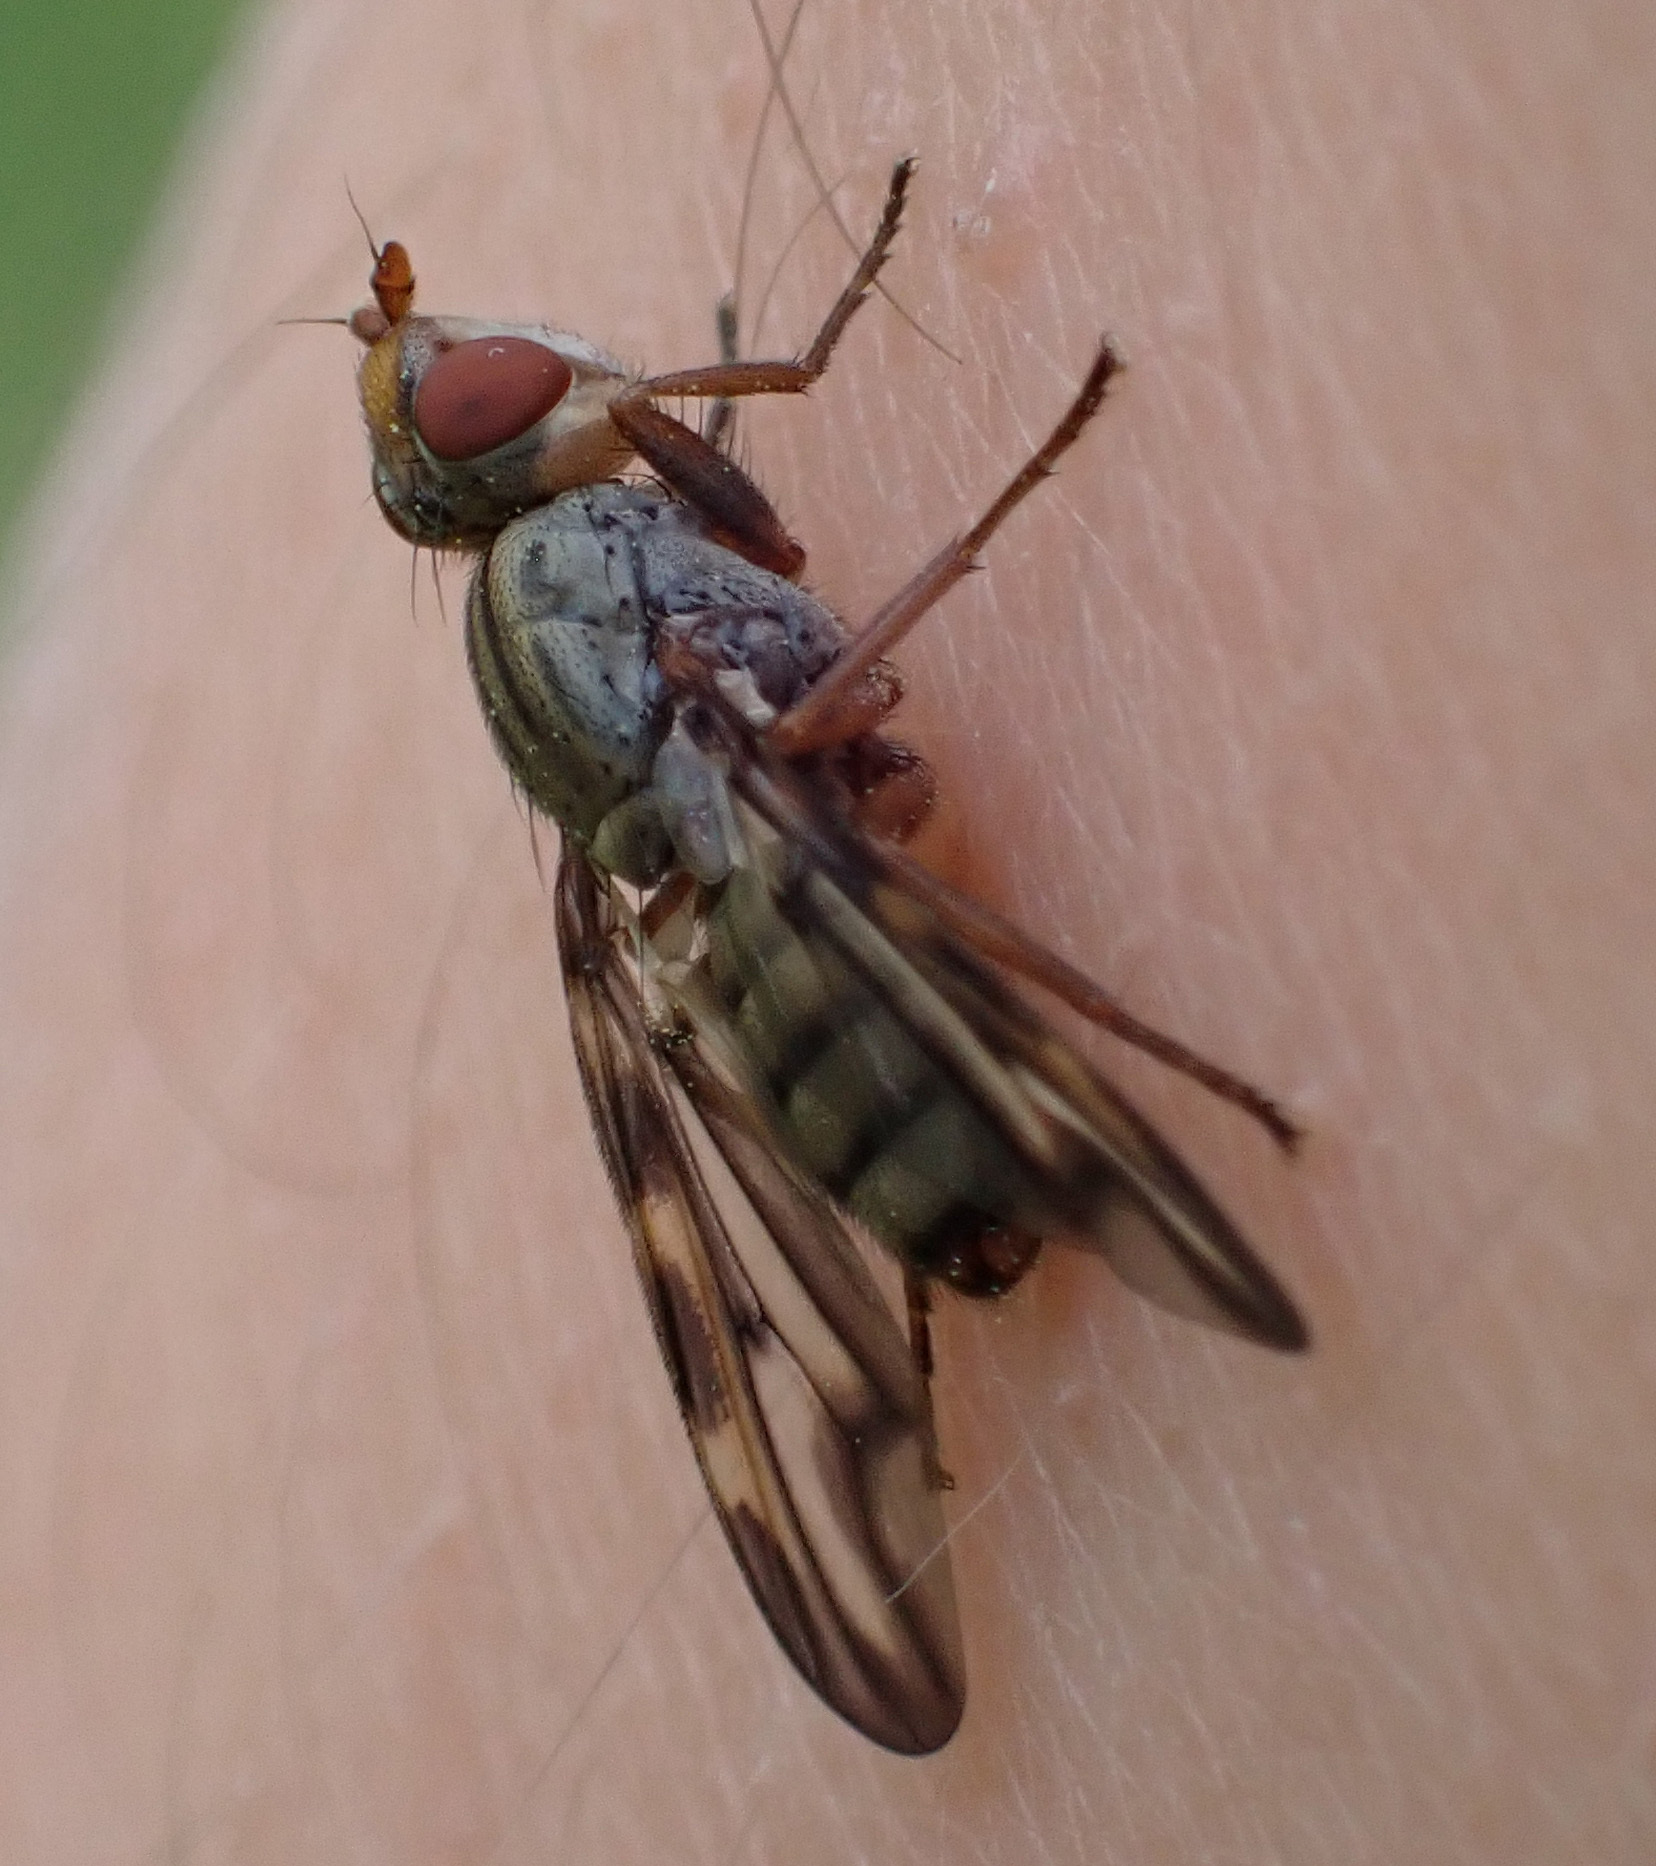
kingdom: Animalia
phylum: Arthropoda
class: Insecta
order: Diptera
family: Ulidiidae
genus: Otites
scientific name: Otites lamed
